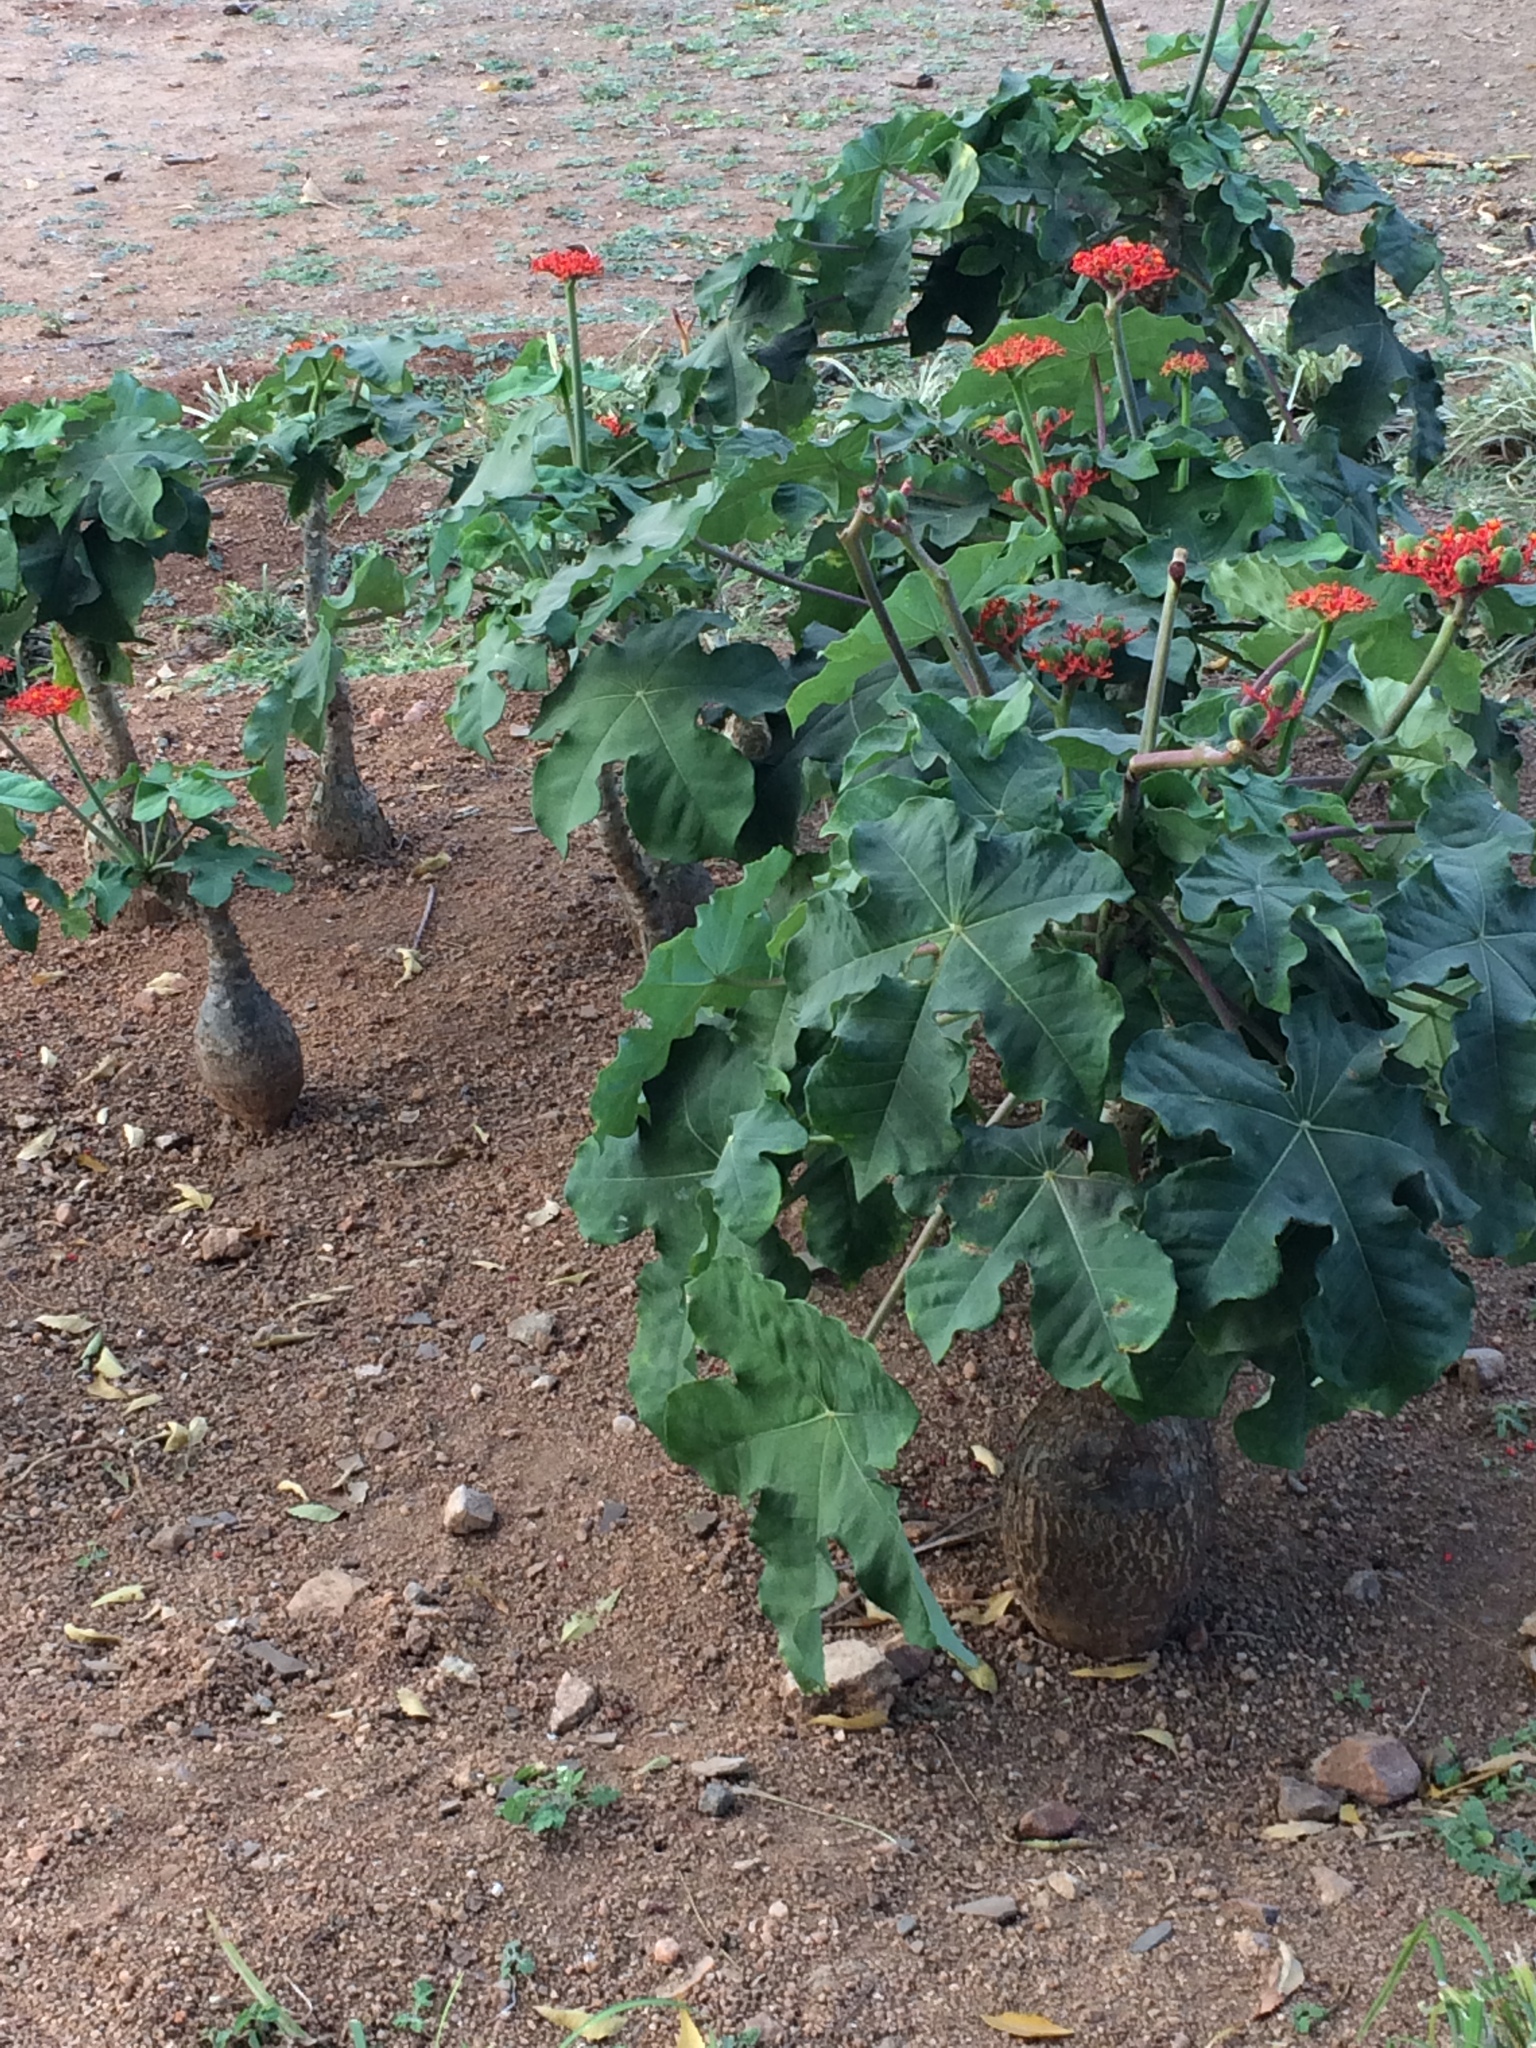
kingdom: Plantae
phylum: Tracheophyta
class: Magnoliopsida
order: Malpighiales
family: Euphorbiaceae
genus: Jatropha
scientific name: Jatropha podagrica
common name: Gout stalk
